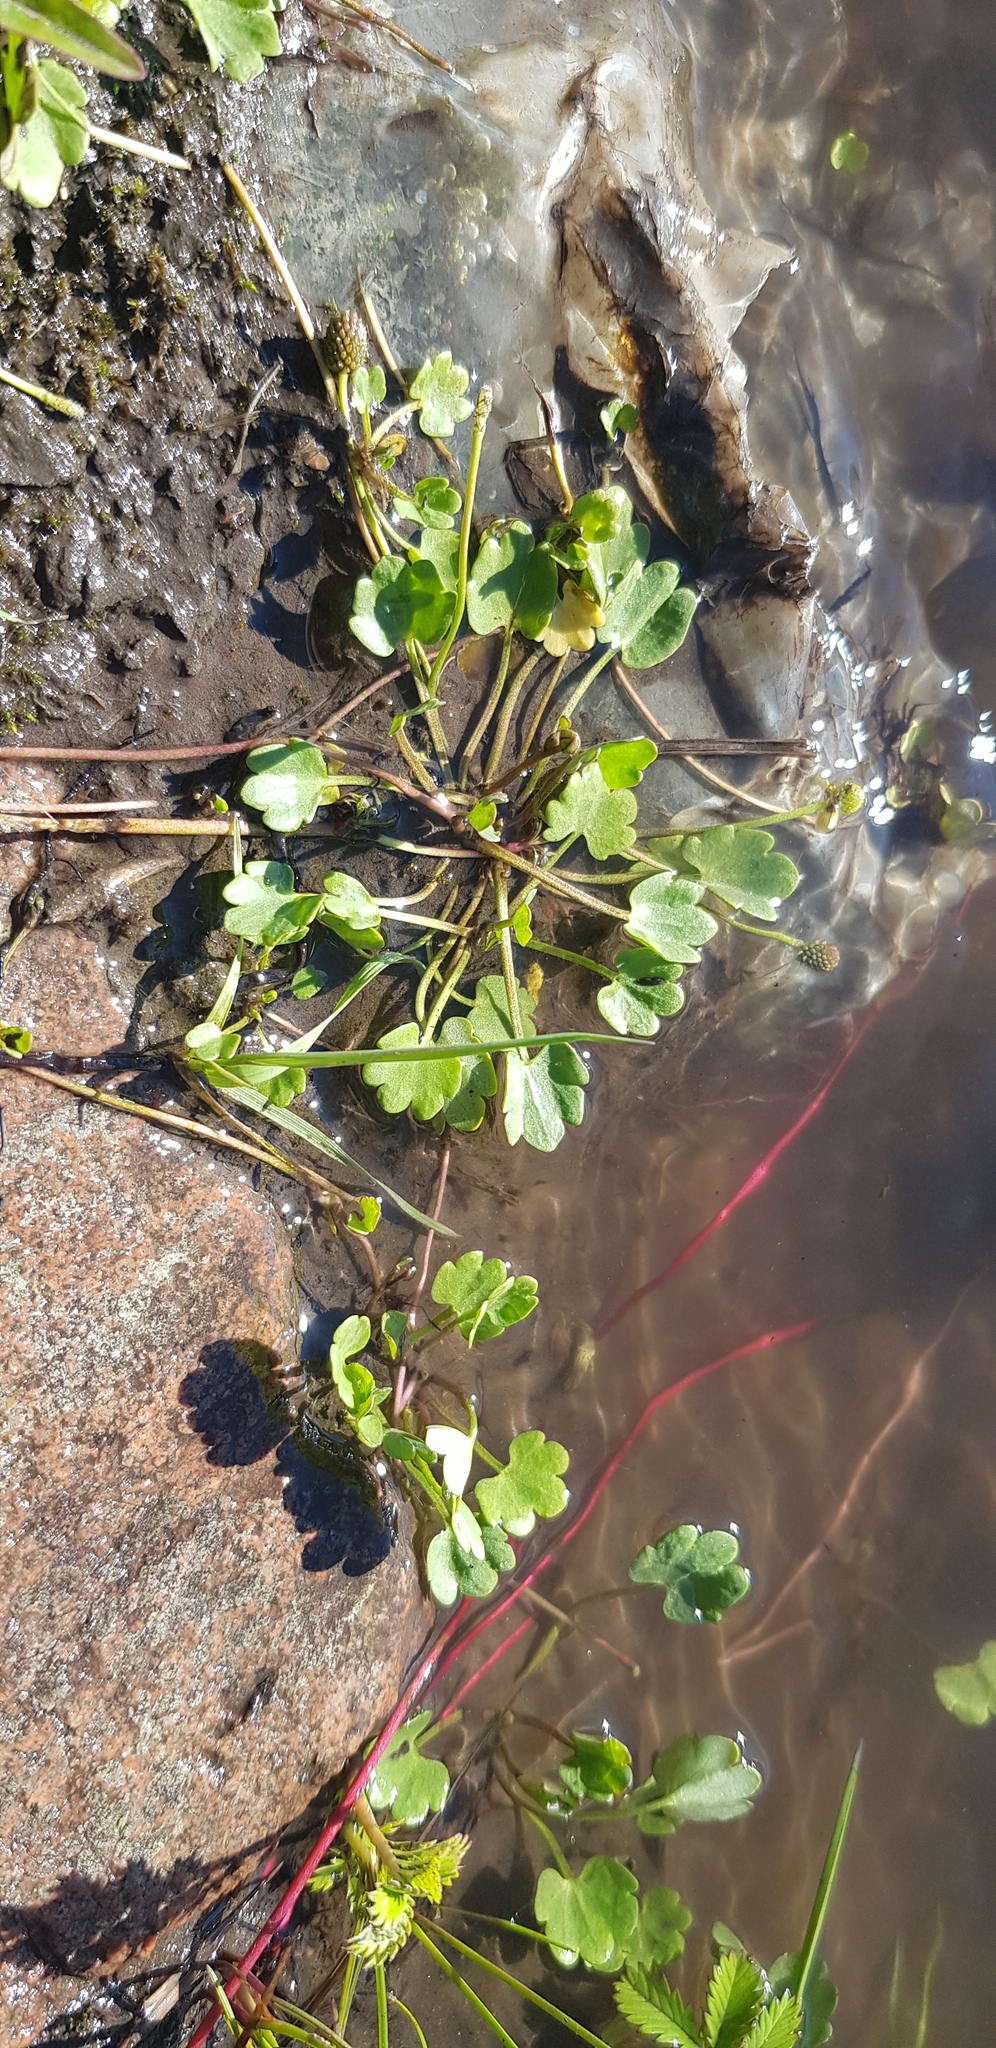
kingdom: Plantae
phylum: Tracheophyta
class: Magnoliopsida
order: Ranunculales
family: Ranunculaceae
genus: Ranunculus
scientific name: Ranunculus natans
